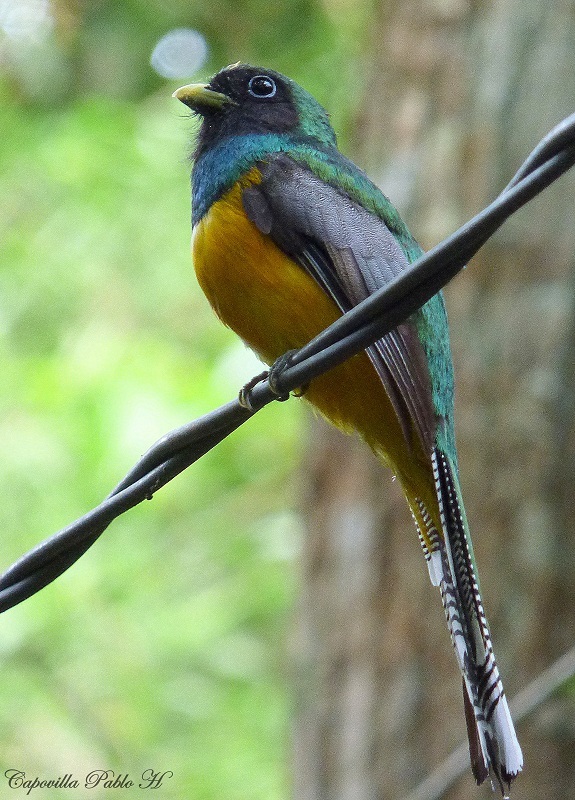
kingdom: Animalia
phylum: Chordata
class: Aves
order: Trogoniformes
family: Trogonidae
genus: Trogon
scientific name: Trogon rufus
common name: Black-throated trogon
